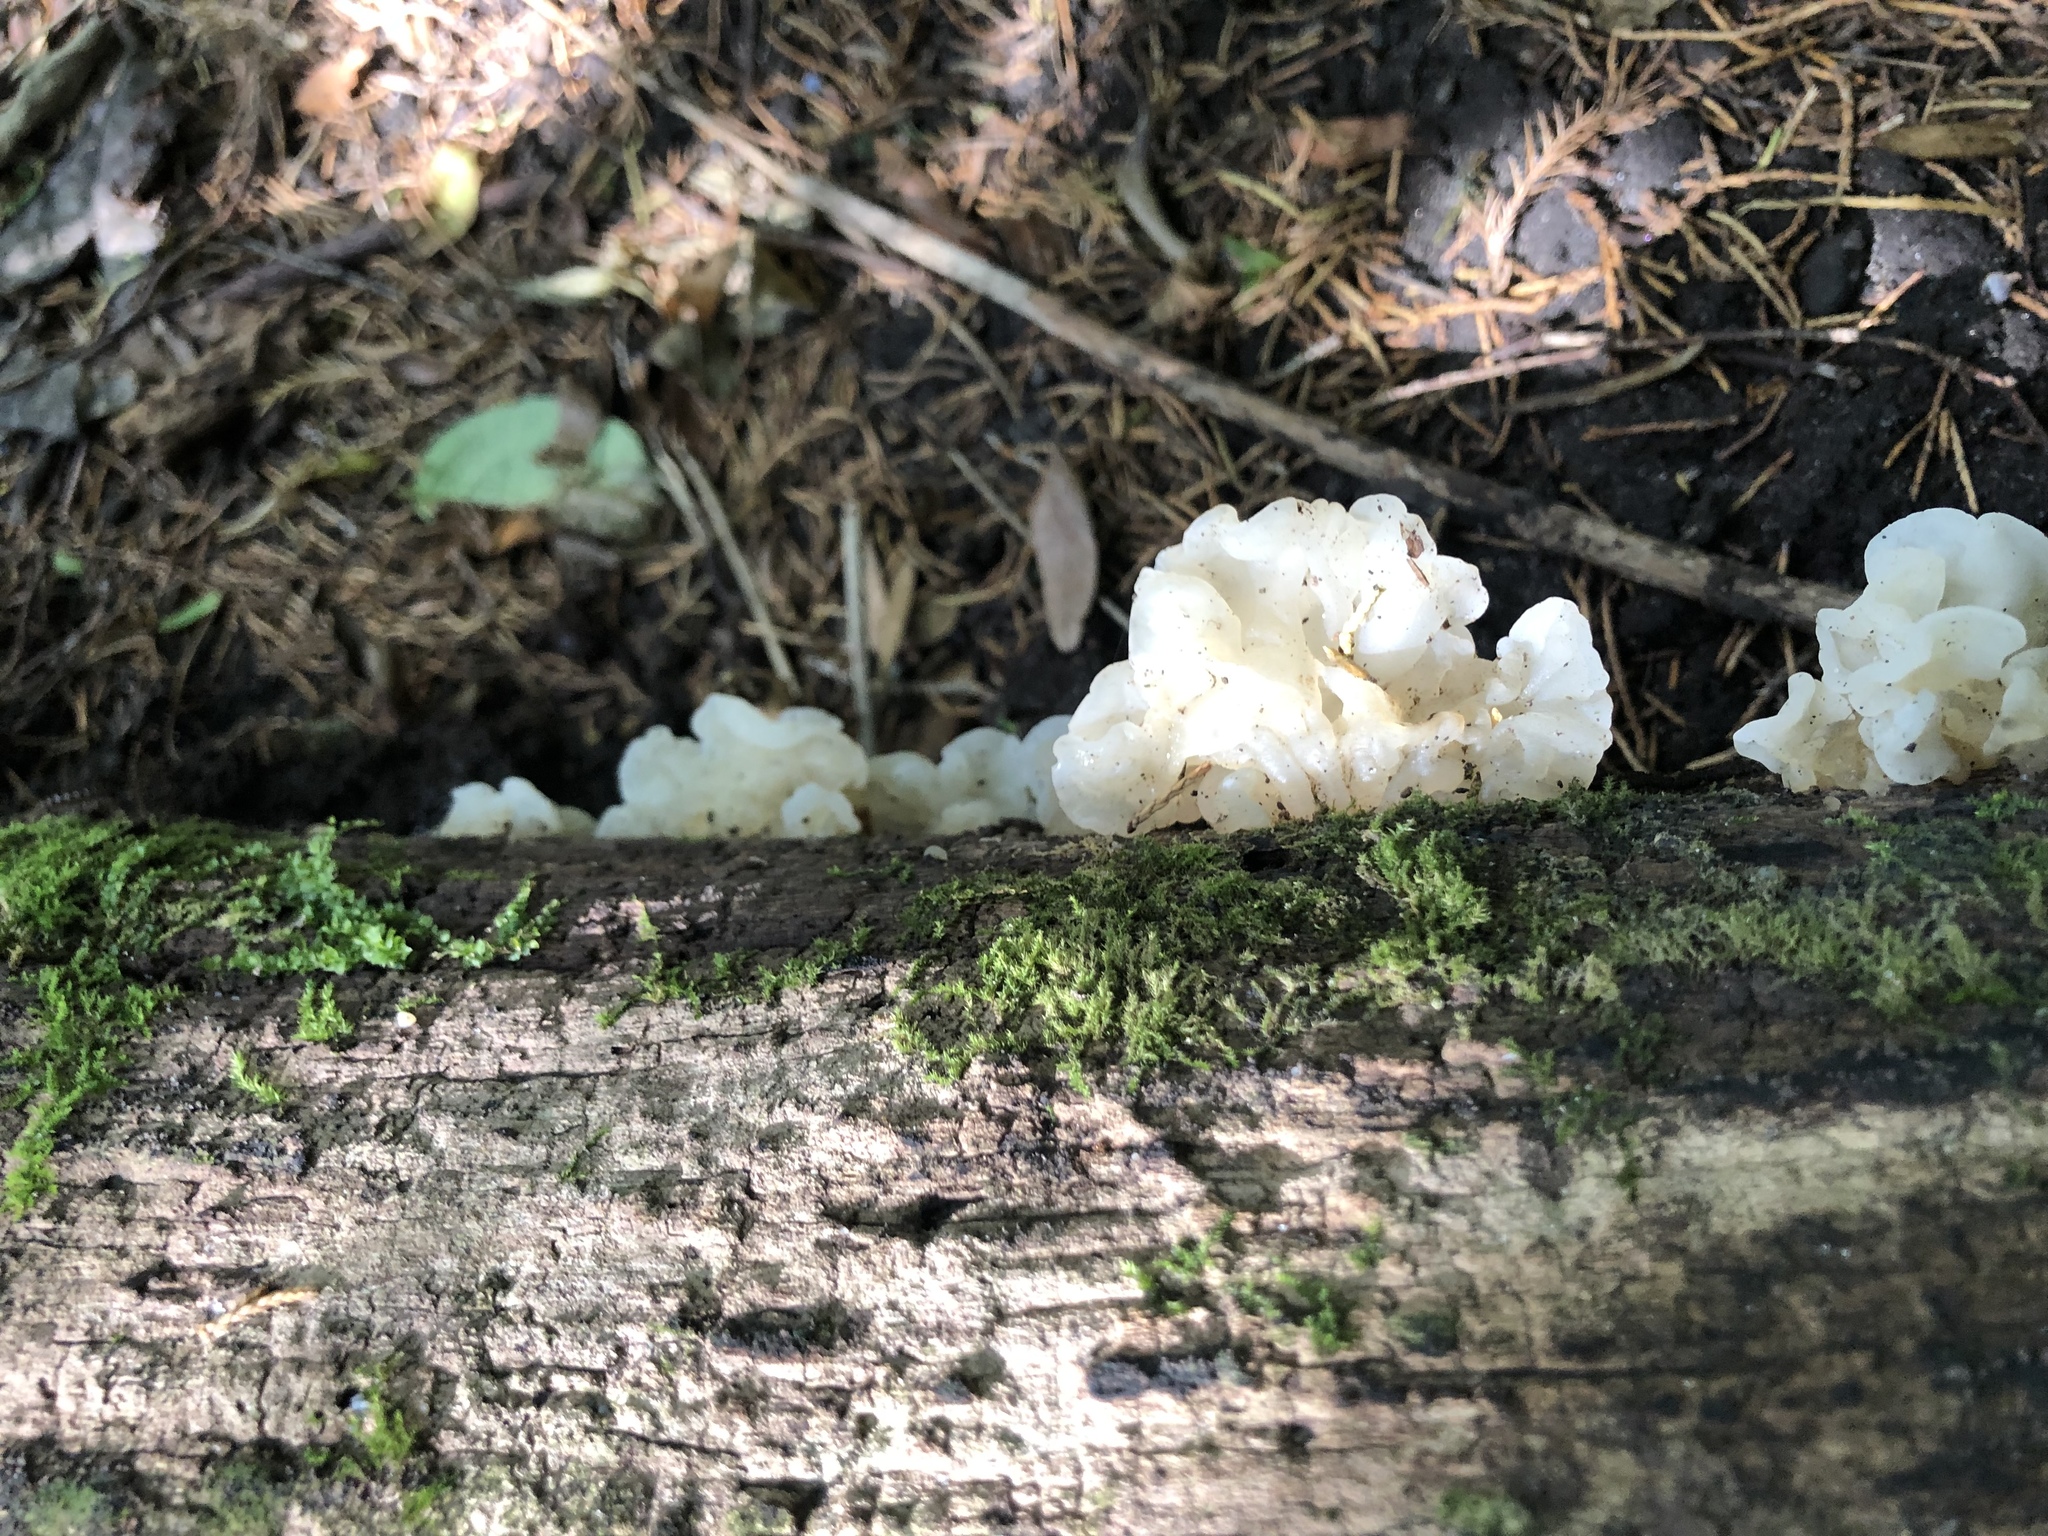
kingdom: Fungi
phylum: Basidiomycota
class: Agaricomycetes
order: Auriculariales
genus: Ductifera
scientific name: Ductifera pululahuana
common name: White jelly fungus
